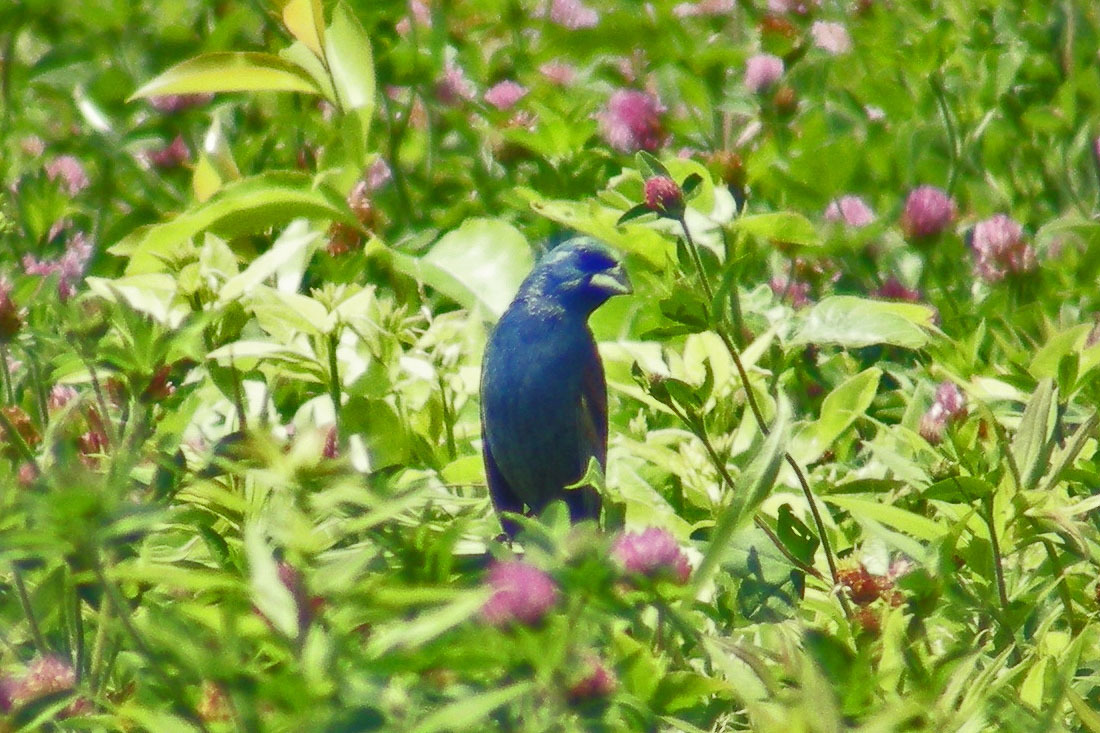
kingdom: Animalia
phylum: Chordata
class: Aves
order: Passeriformes
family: Cardinalidae
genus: Passerina
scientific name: Passerina caerulea
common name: Blue grosbeak
